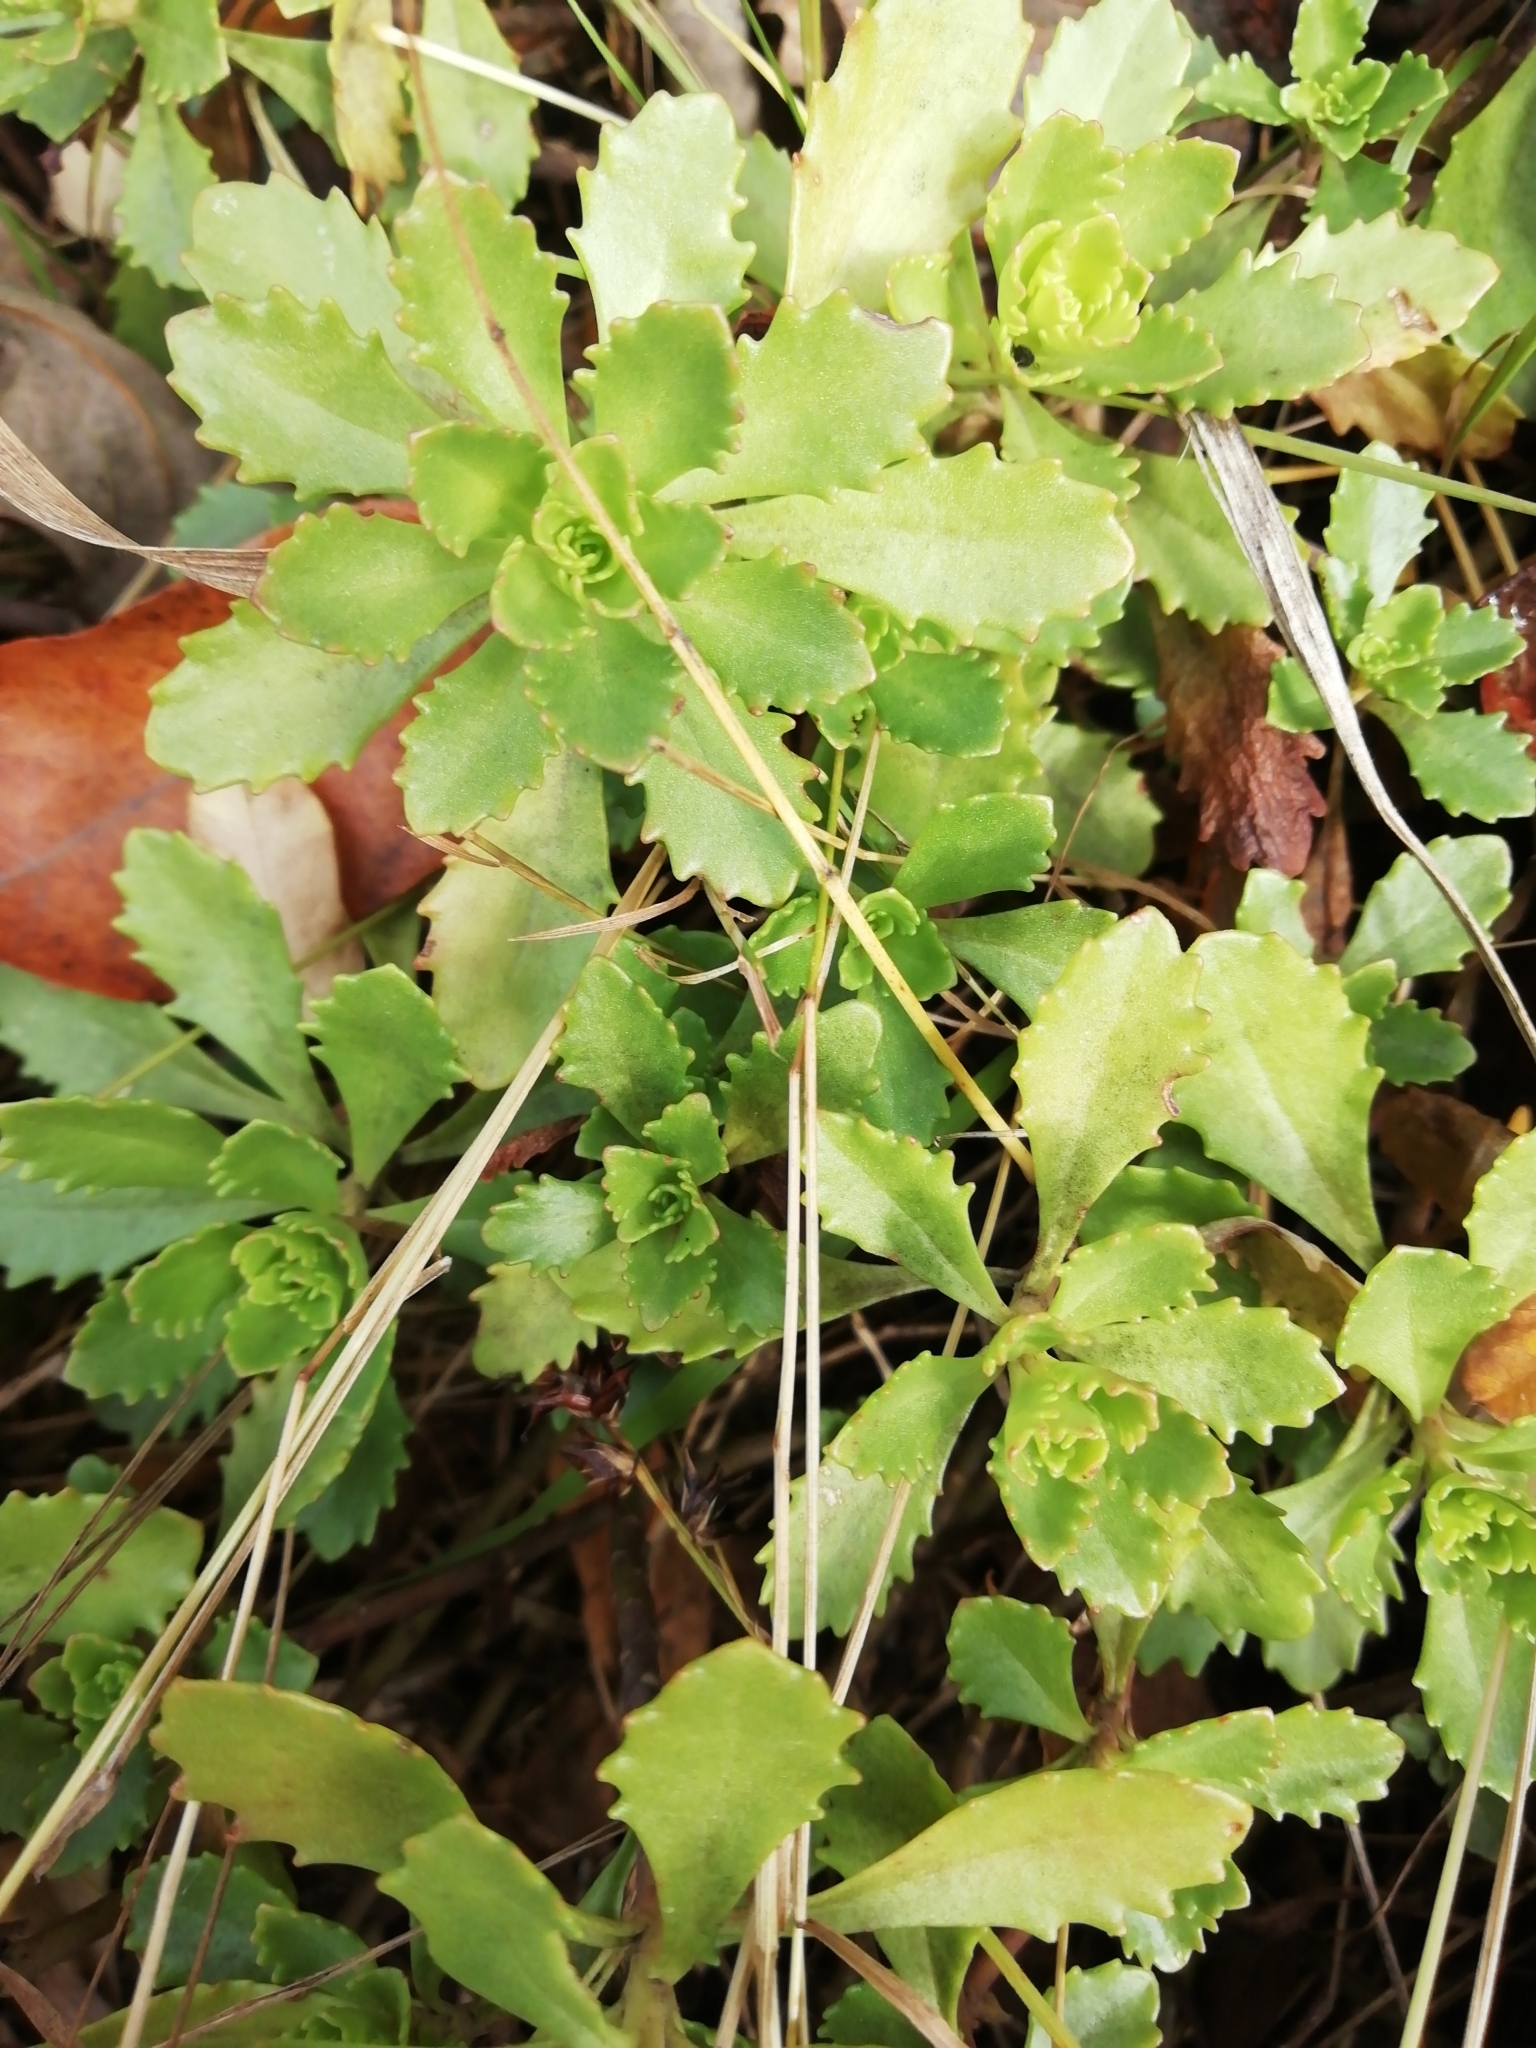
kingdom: Plantae
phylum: Tracheophyta
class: Magnoliopsida
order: Saxifragales
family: Crassulaceae
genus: Phedimus
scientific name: Phedimus hybridus
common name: Hybrid stonecrop
